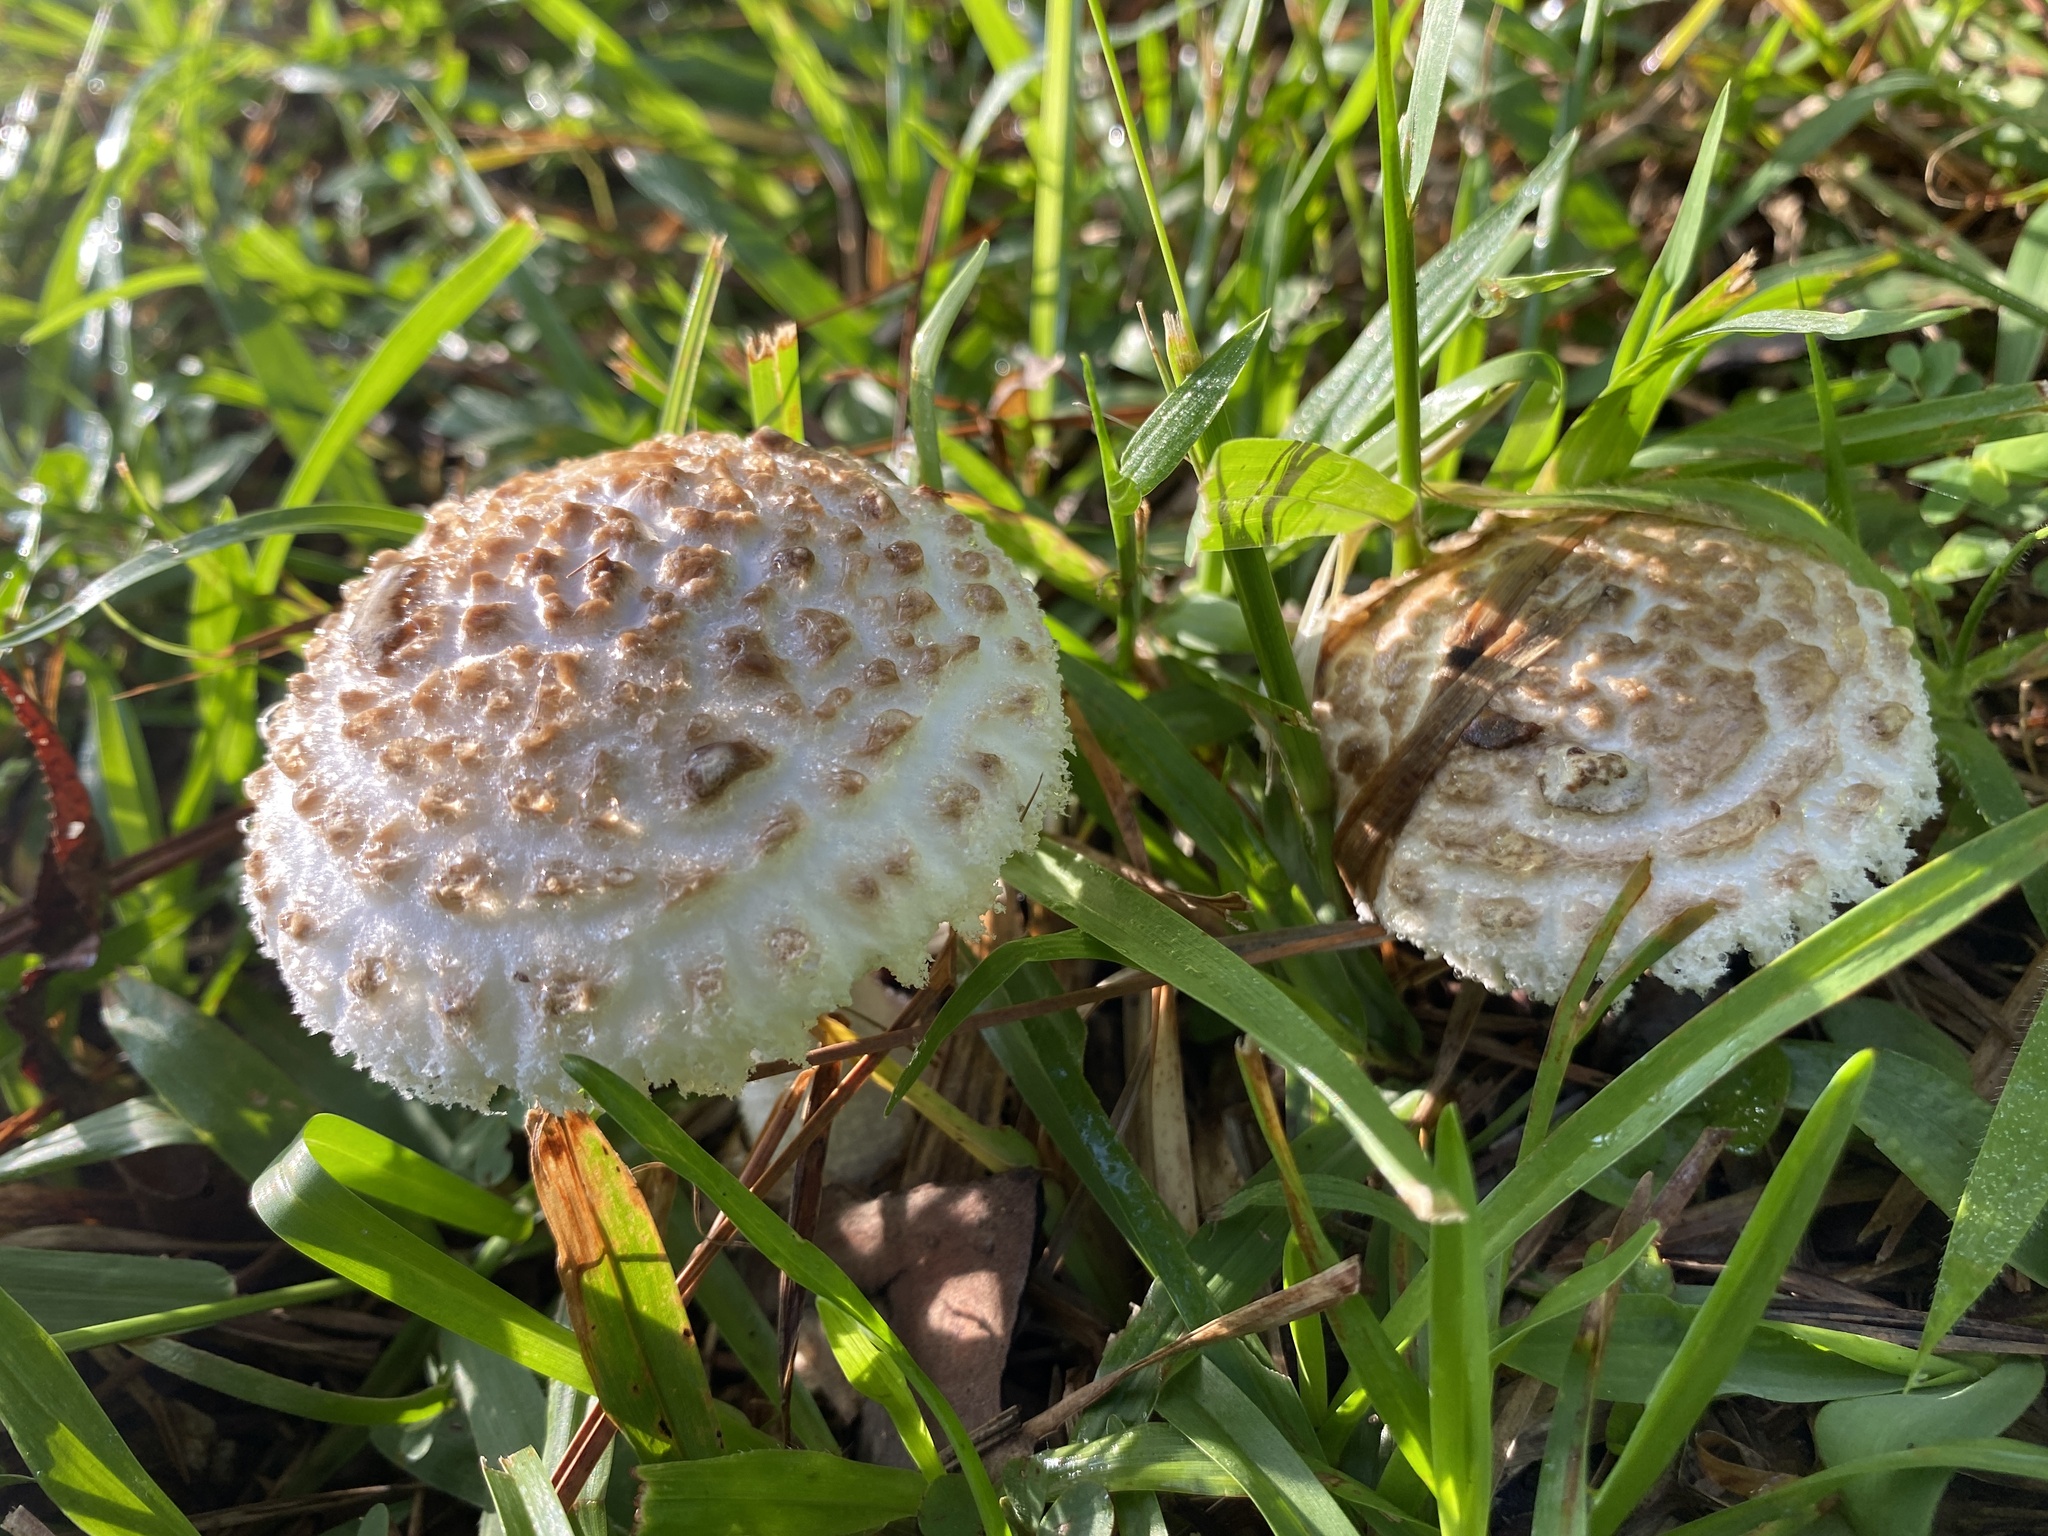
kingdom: Fungi
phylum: Basidiomycota
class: Agaricomycetes
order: Agaricales
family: Amanitaceae
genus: Aspidella
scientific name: Aspidella hesleri
